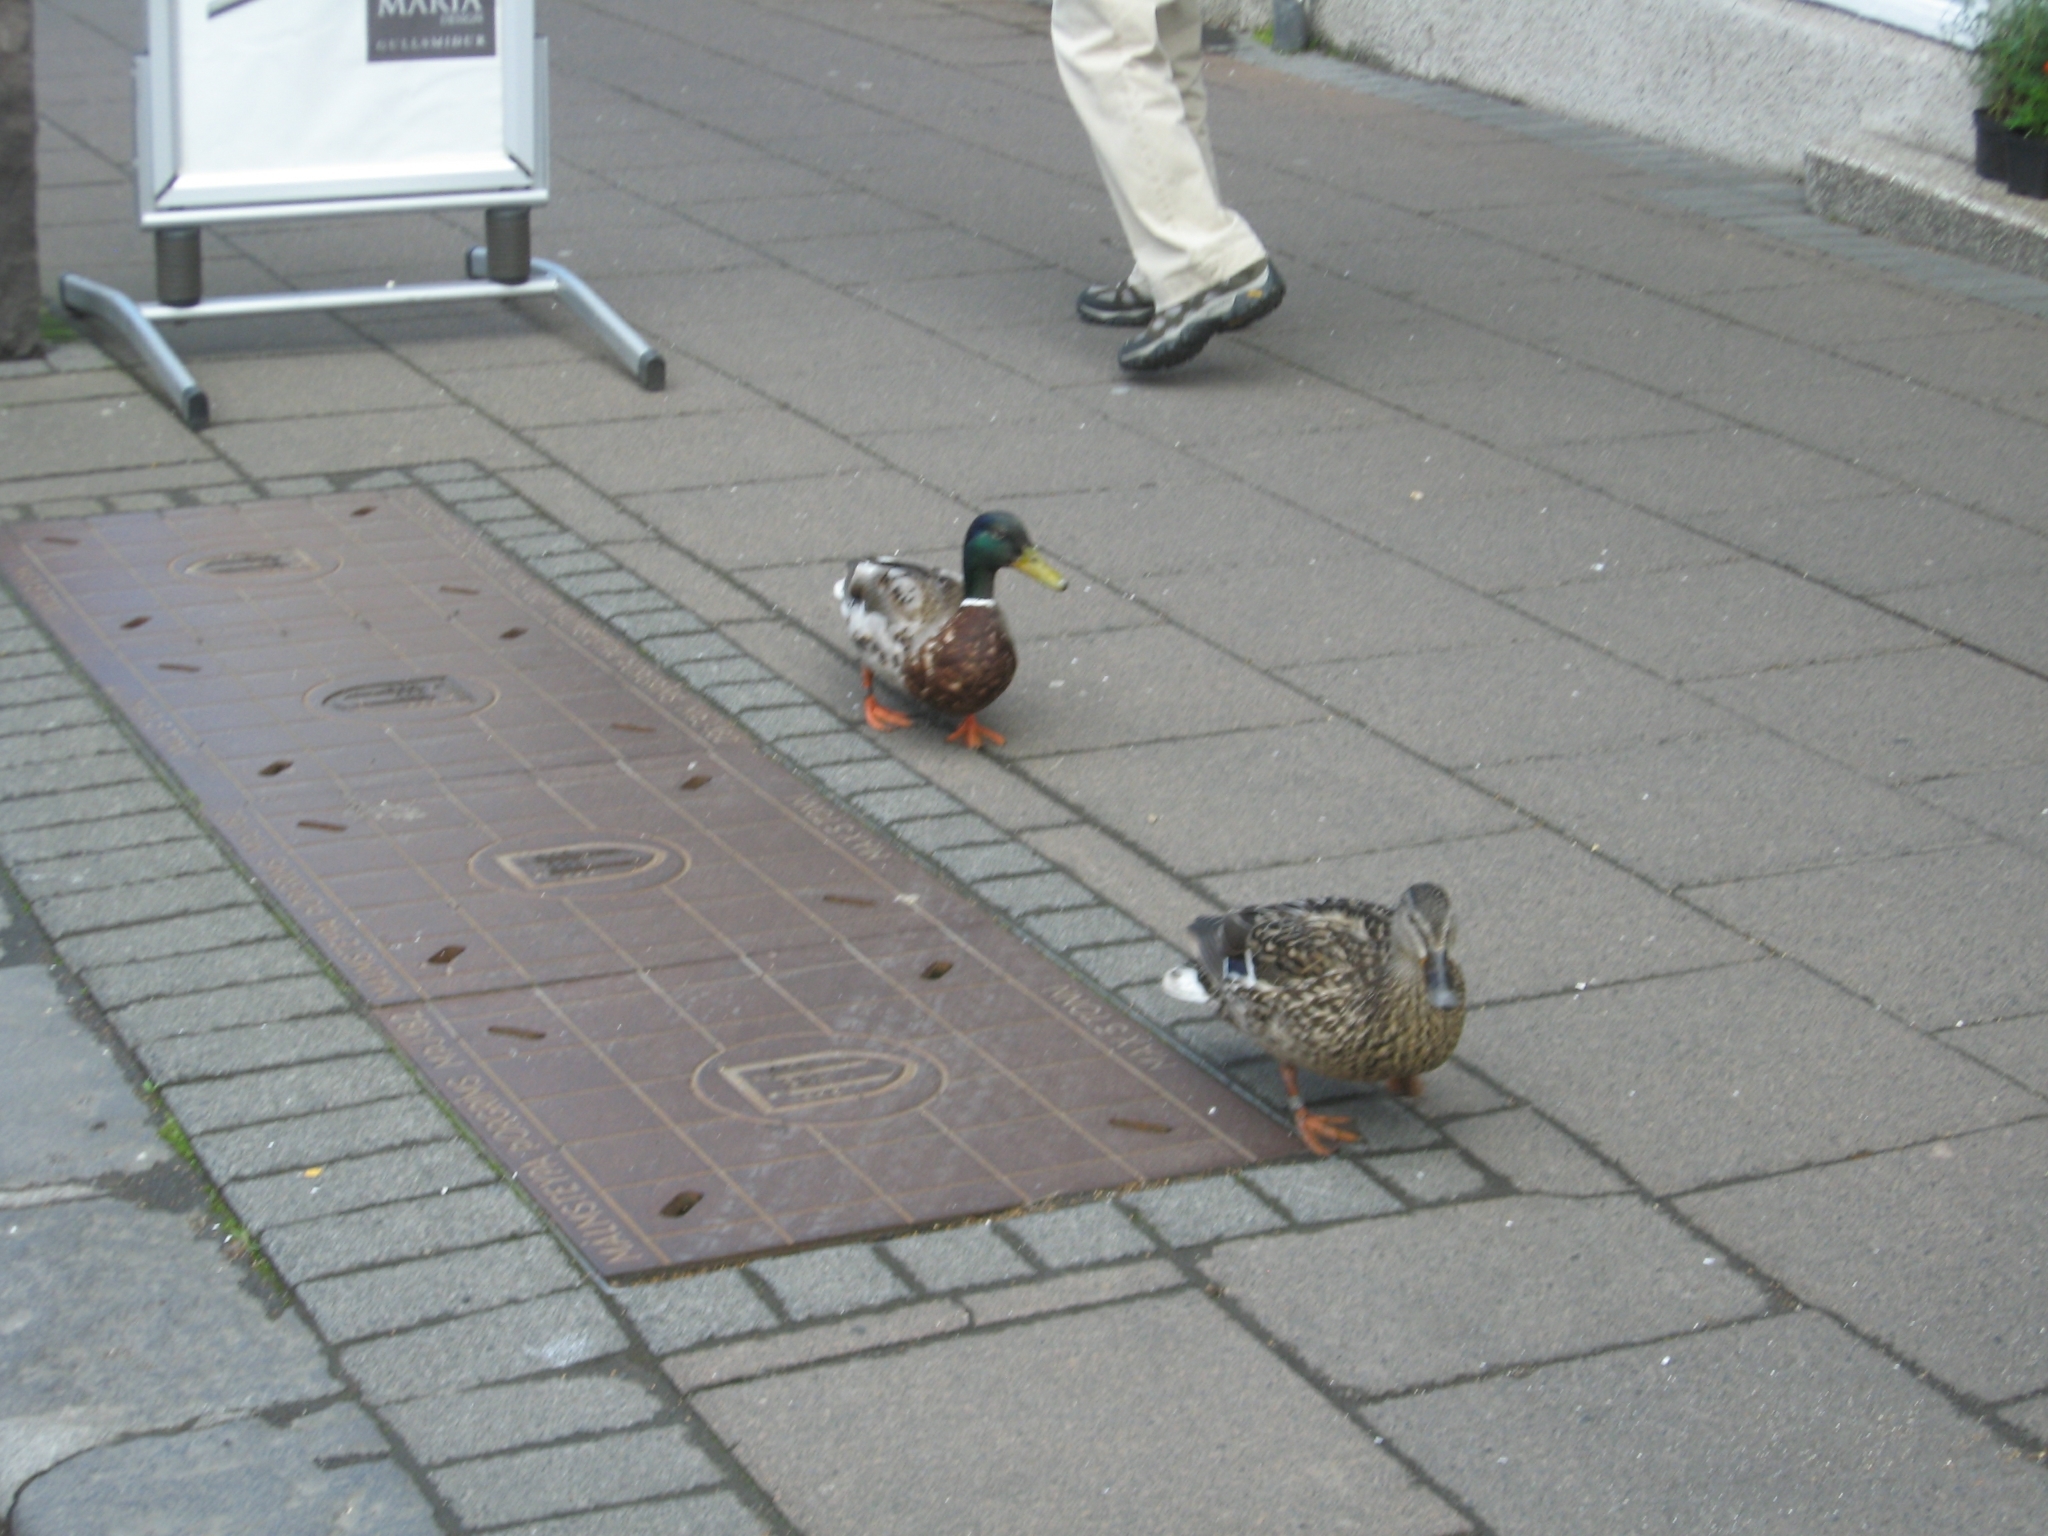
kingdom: Animalia
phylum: Chordata
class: Aves
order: Anseriformes
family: Anatidae
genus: Anas
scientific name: Anas platyrhynchos
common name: Mallard
